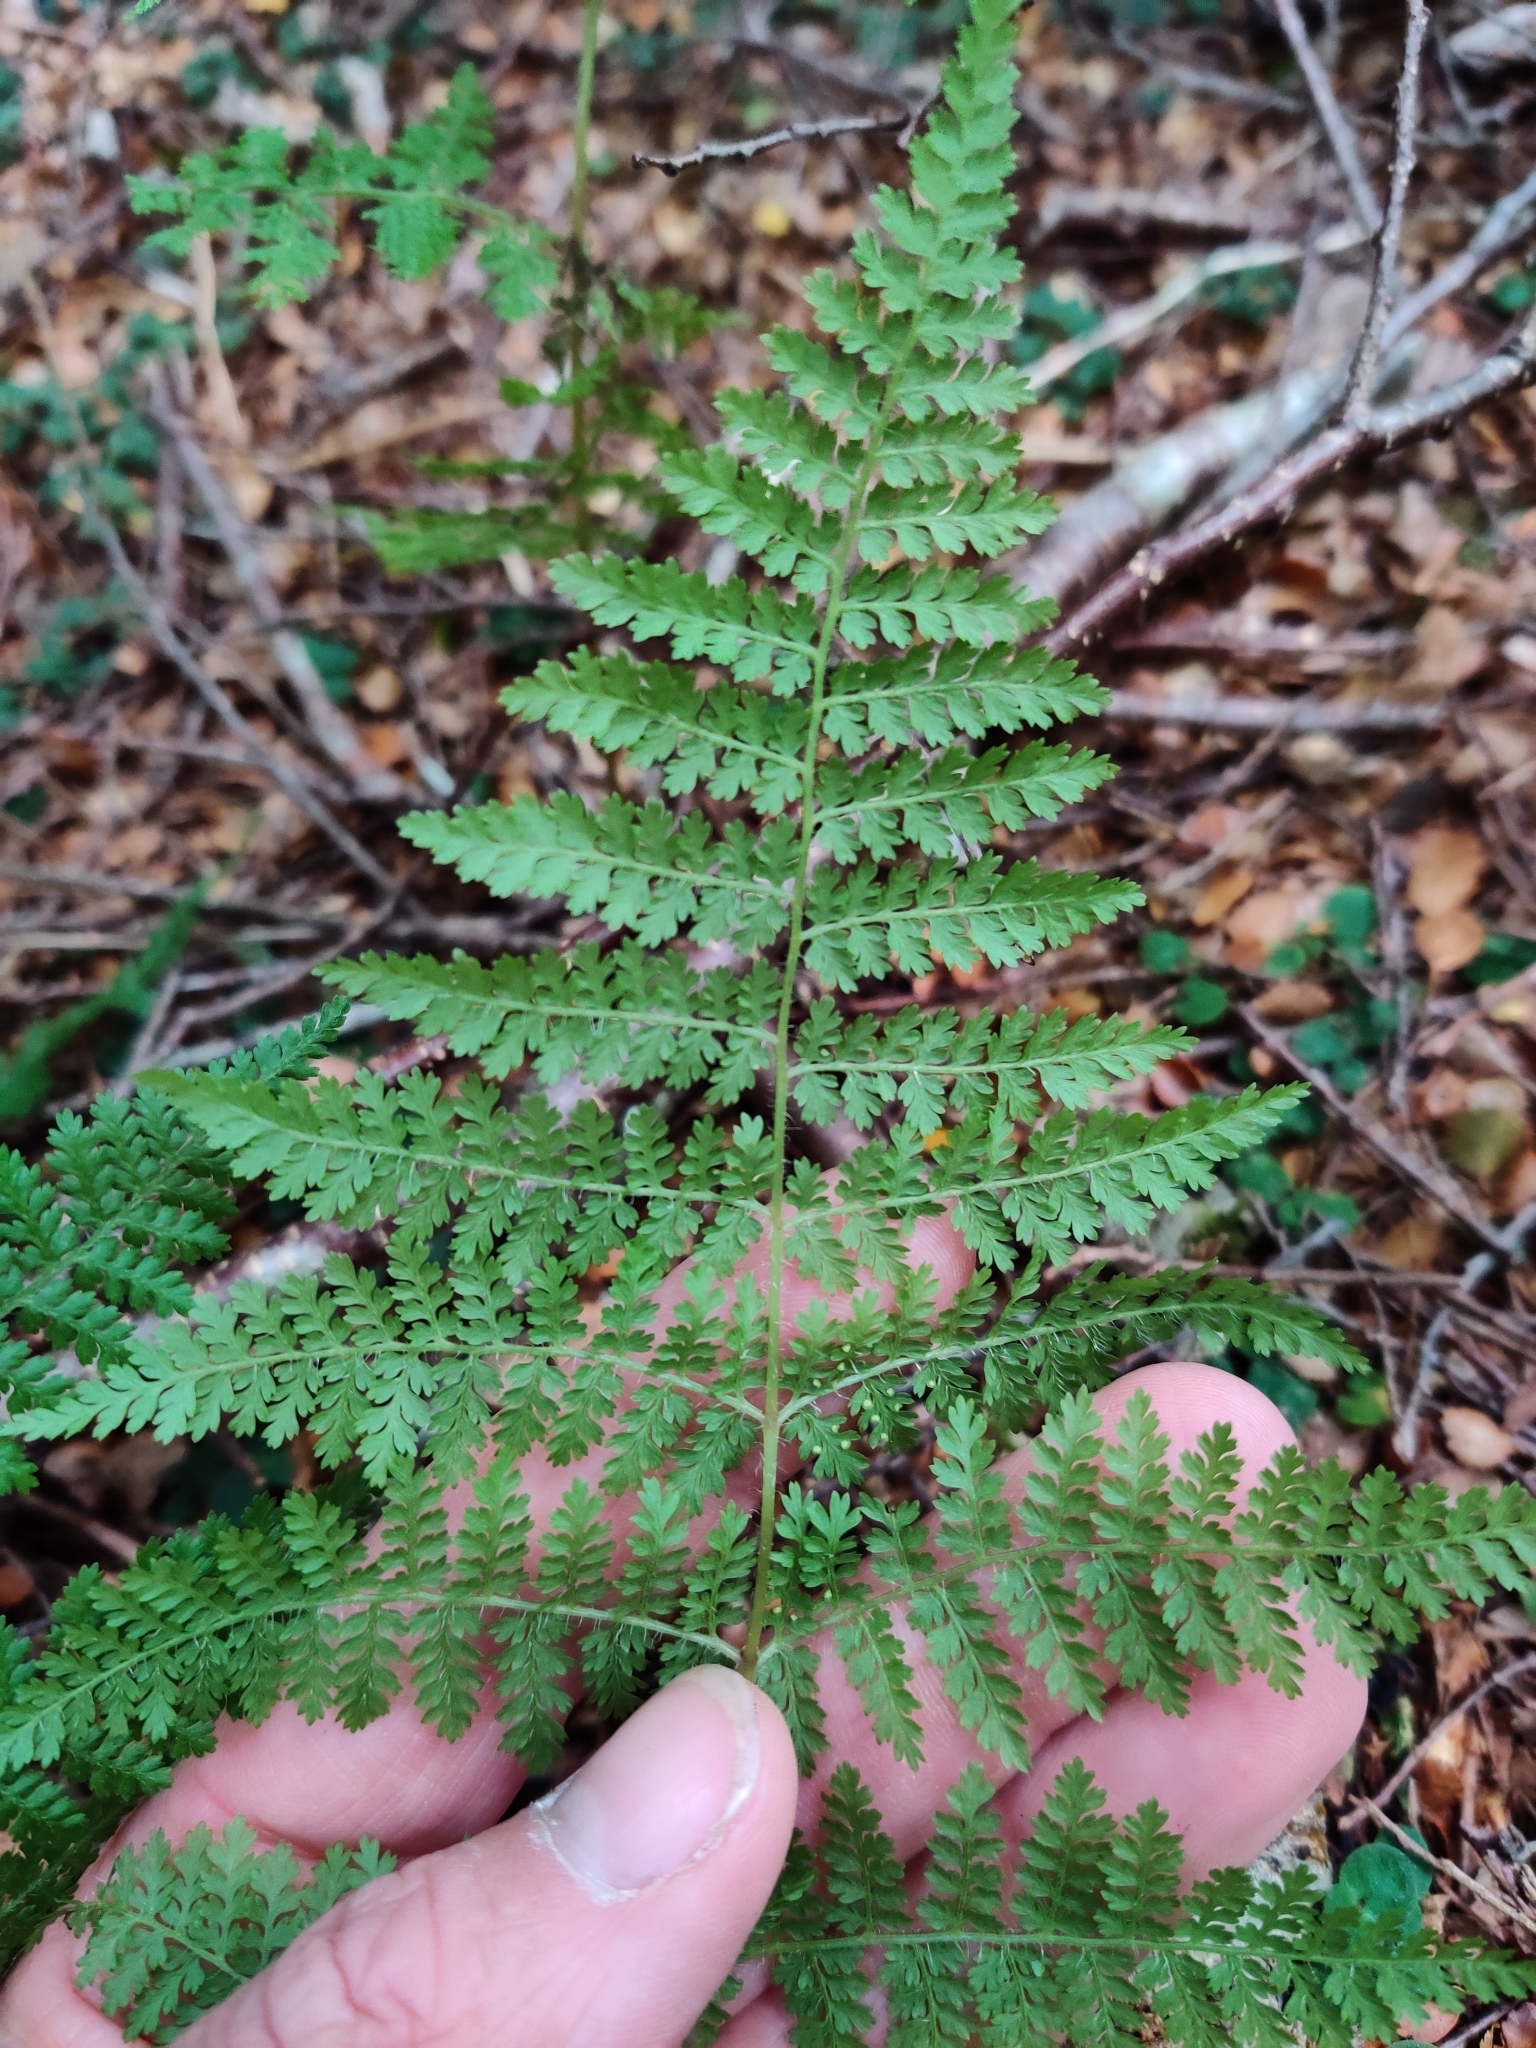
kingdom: Plantae
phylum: Tracheophyta
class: Polypodiopsida
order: Polypodiales
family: Dennstaedtiaceae
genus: Hypolepis
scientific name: Hypolepis millefolium
